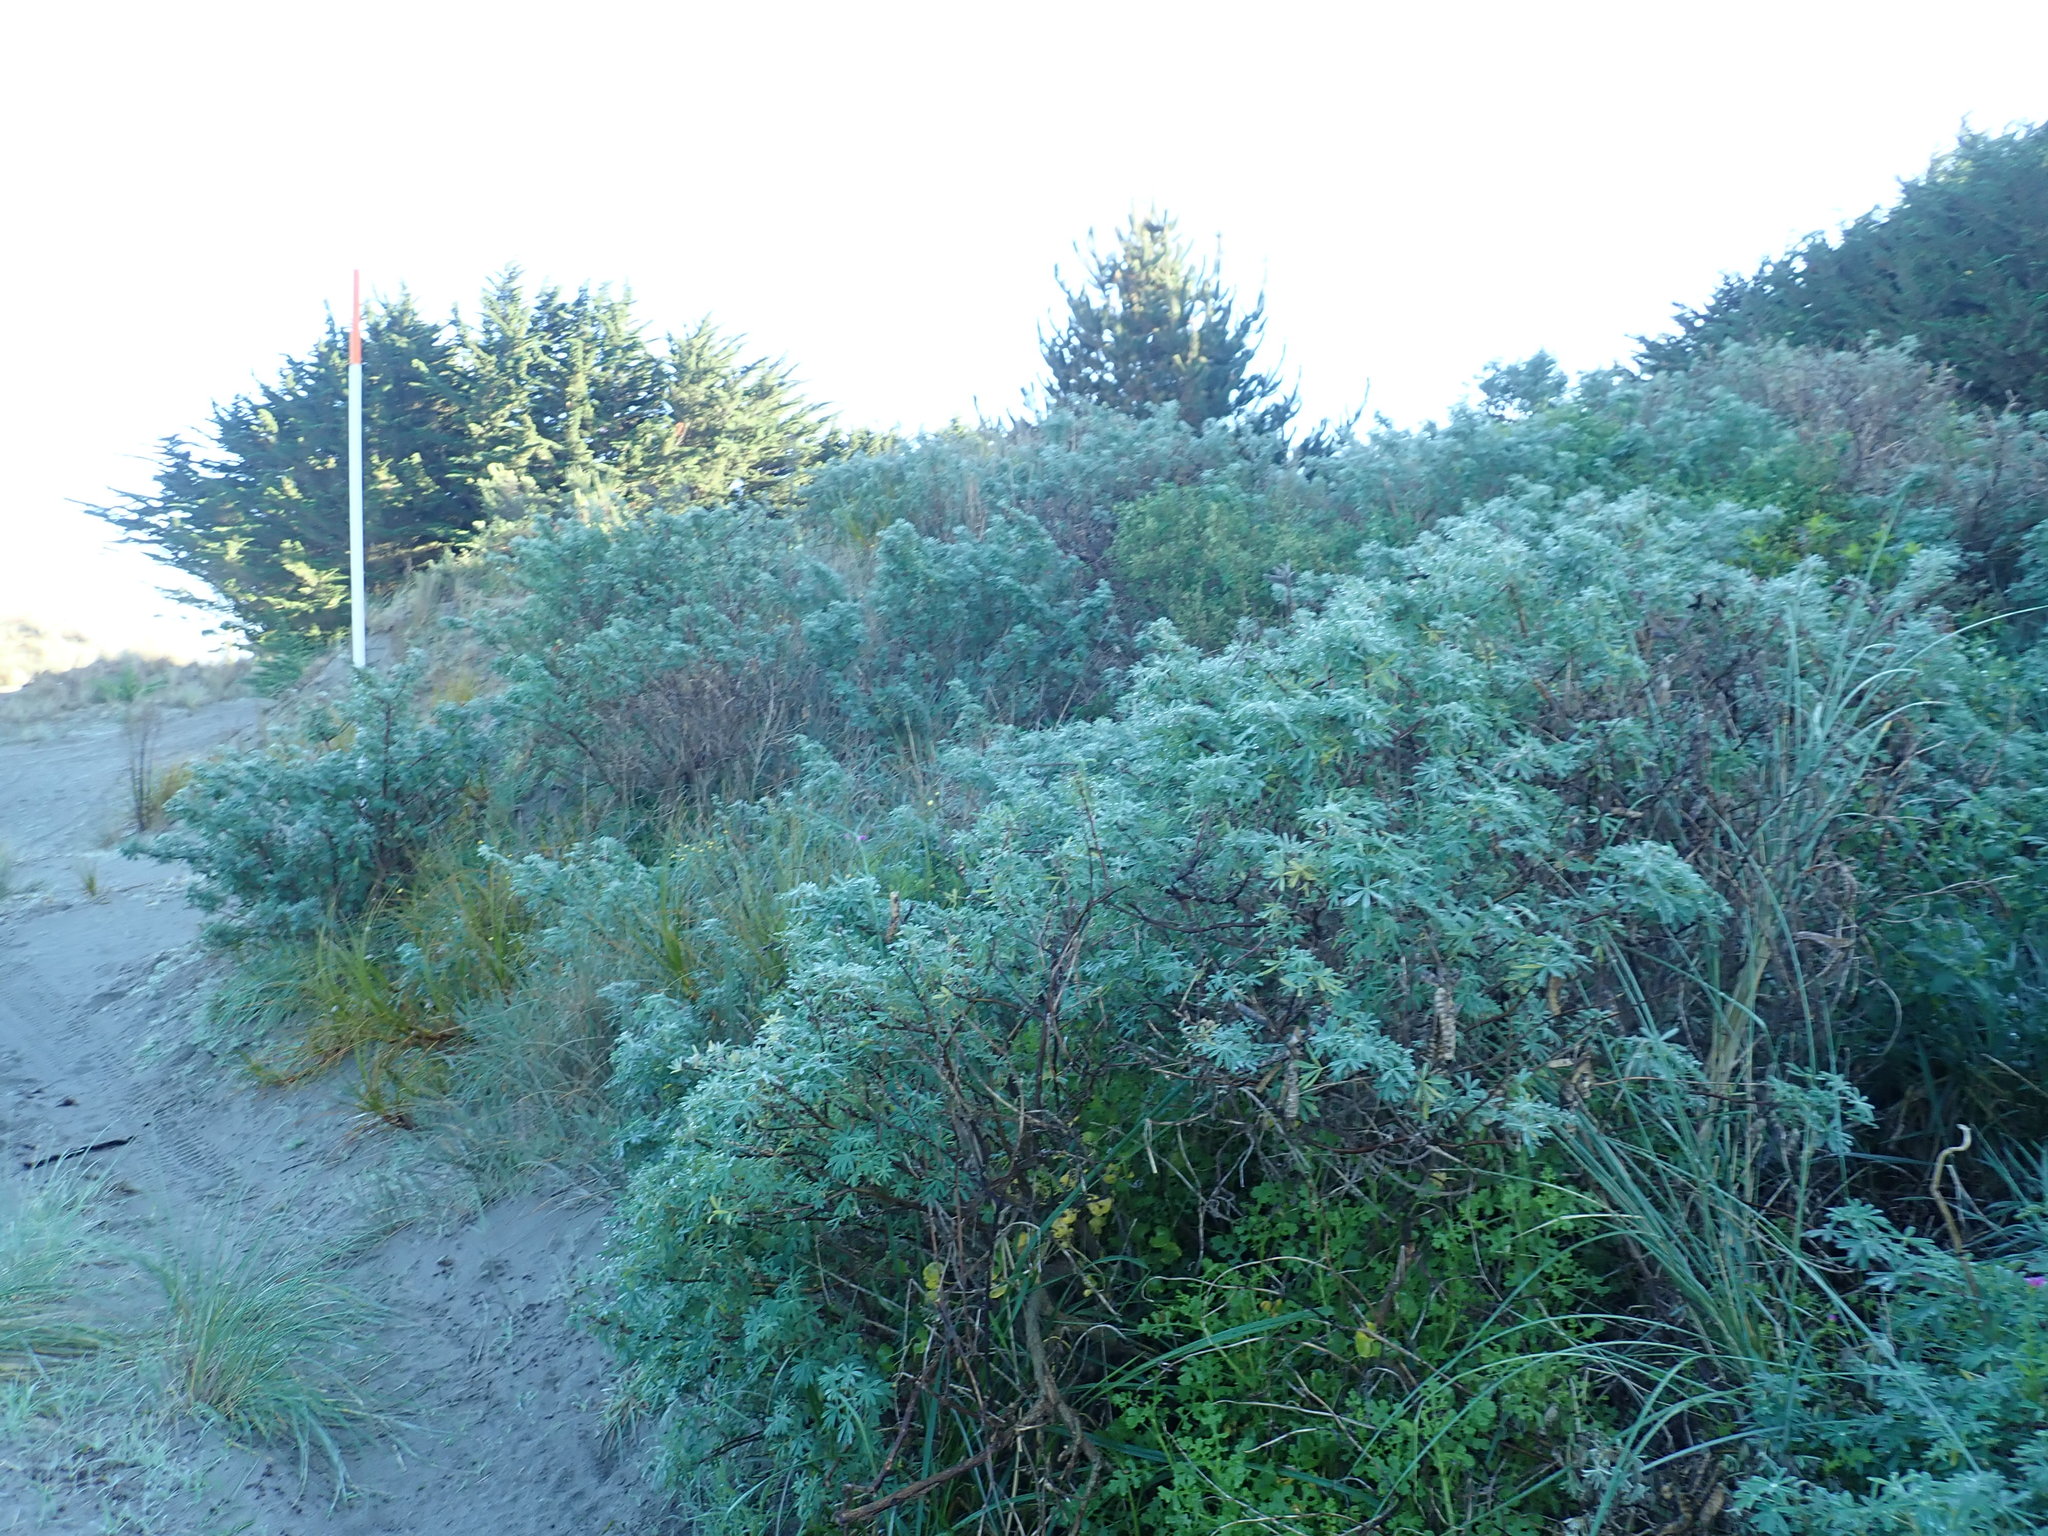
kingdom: Plantae
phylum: Tracheophyta
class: Magnoliopsida
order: Fabales
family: Fabaceae
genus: Lupinus
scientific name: Lupinus arboreus
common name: Yellow bush lupine
